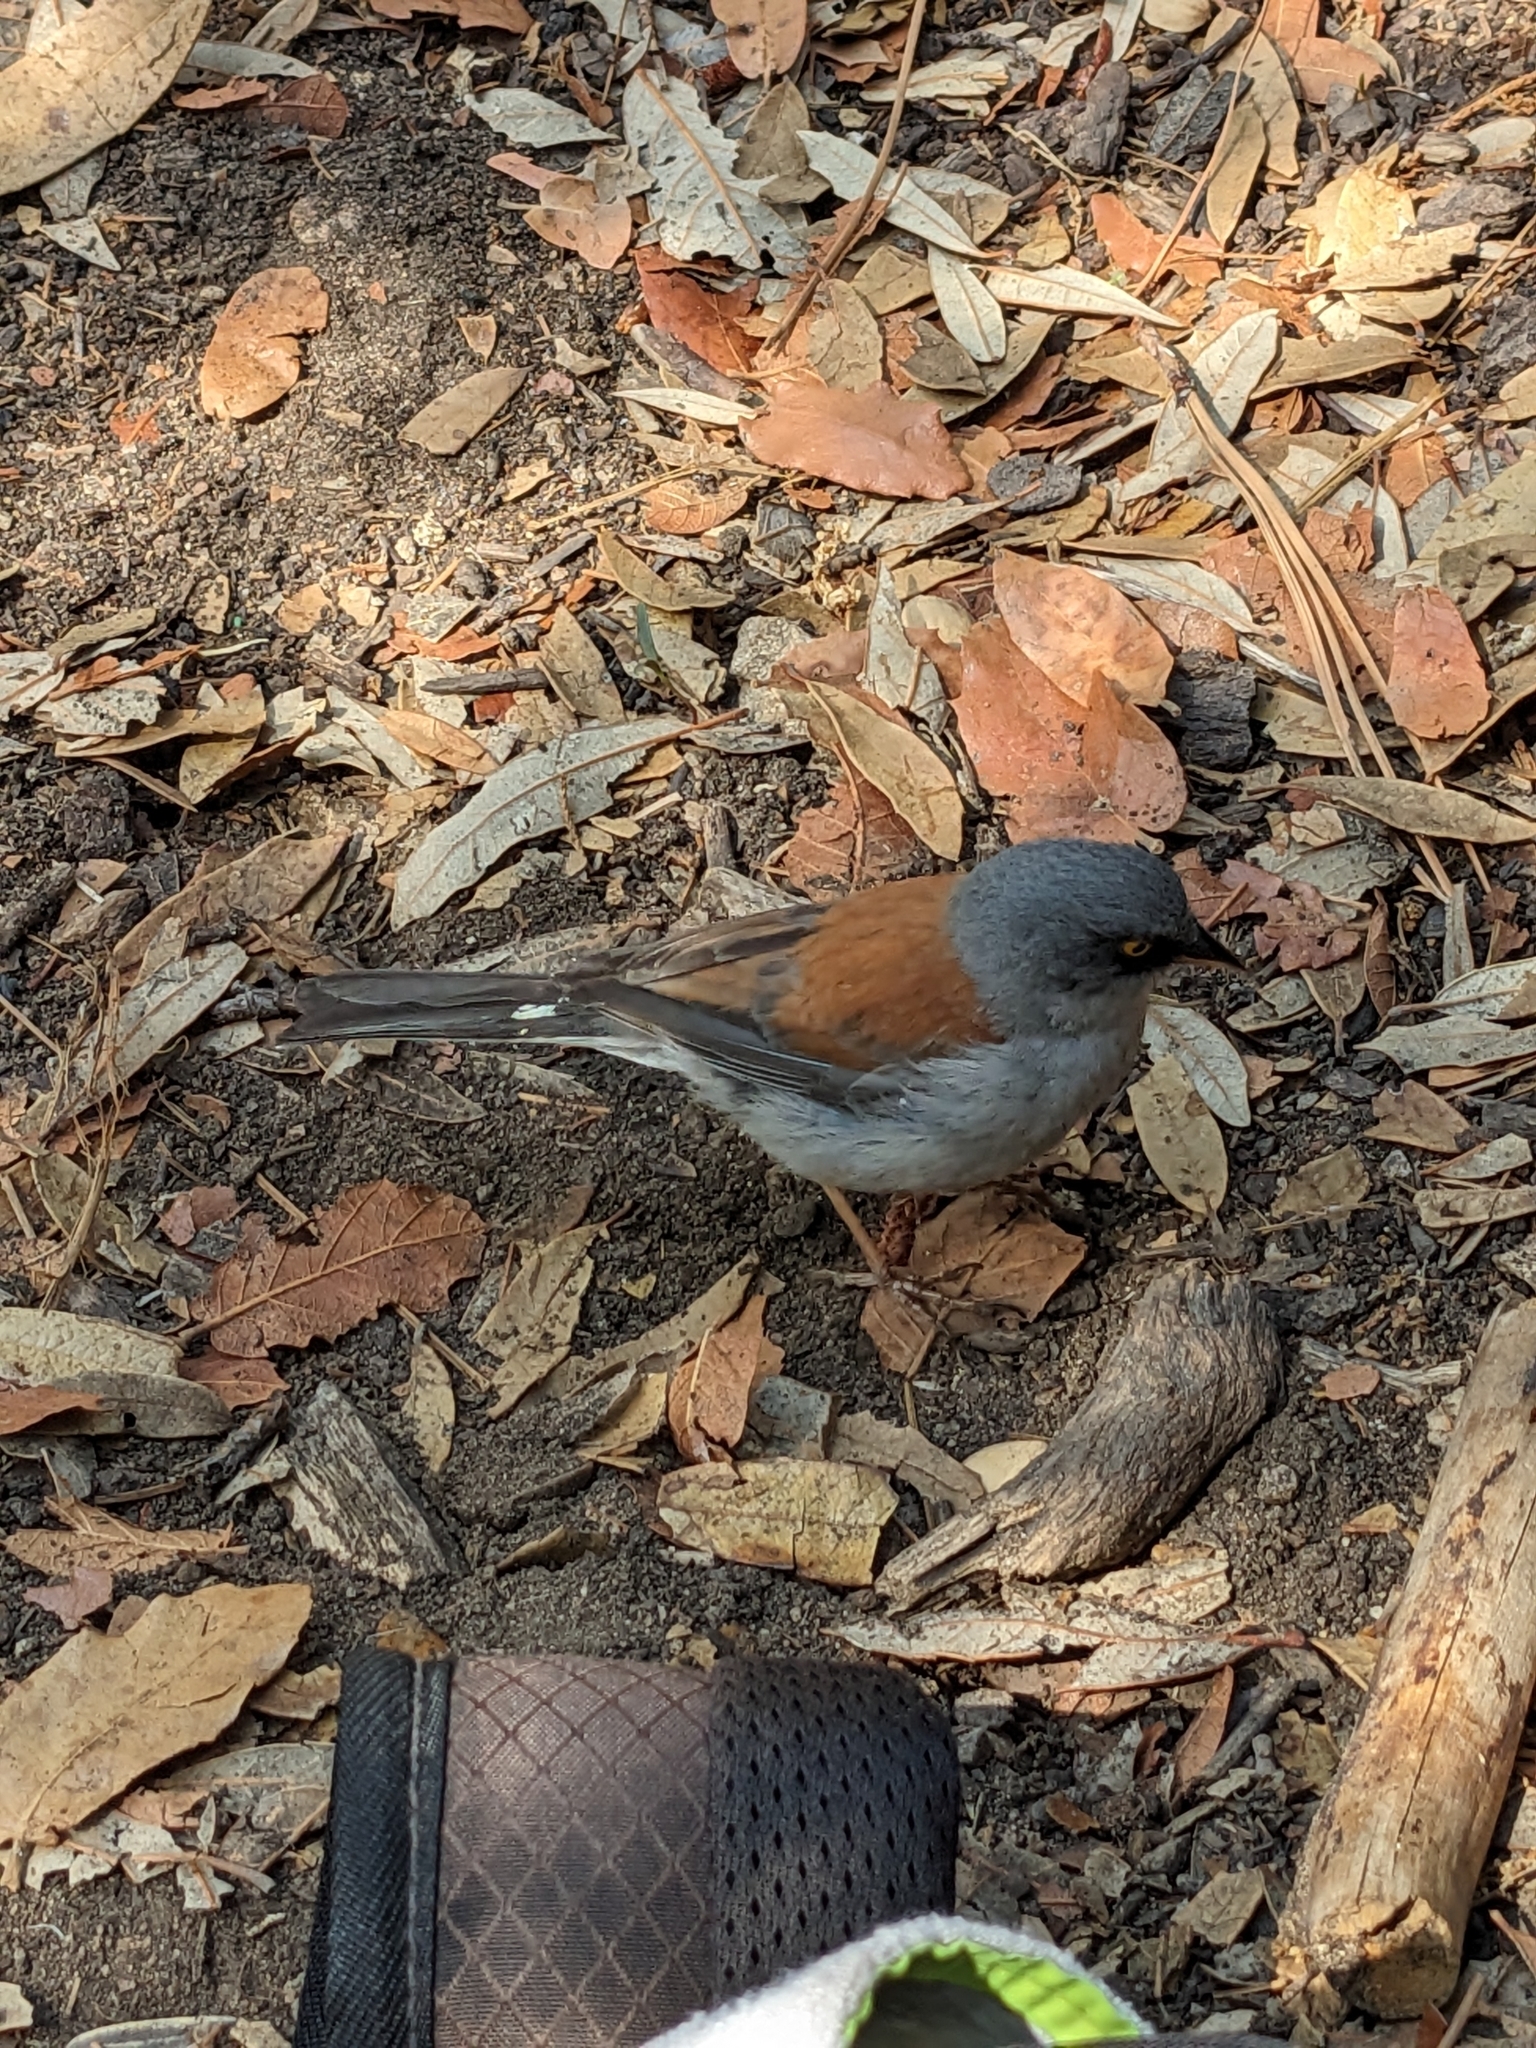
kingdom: Animalia
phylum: Chordata
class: Aves
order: Passeriformes
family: Passerellidae
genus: Junco
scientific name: Junco phaeonotus
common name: Yellow-eyed junco
